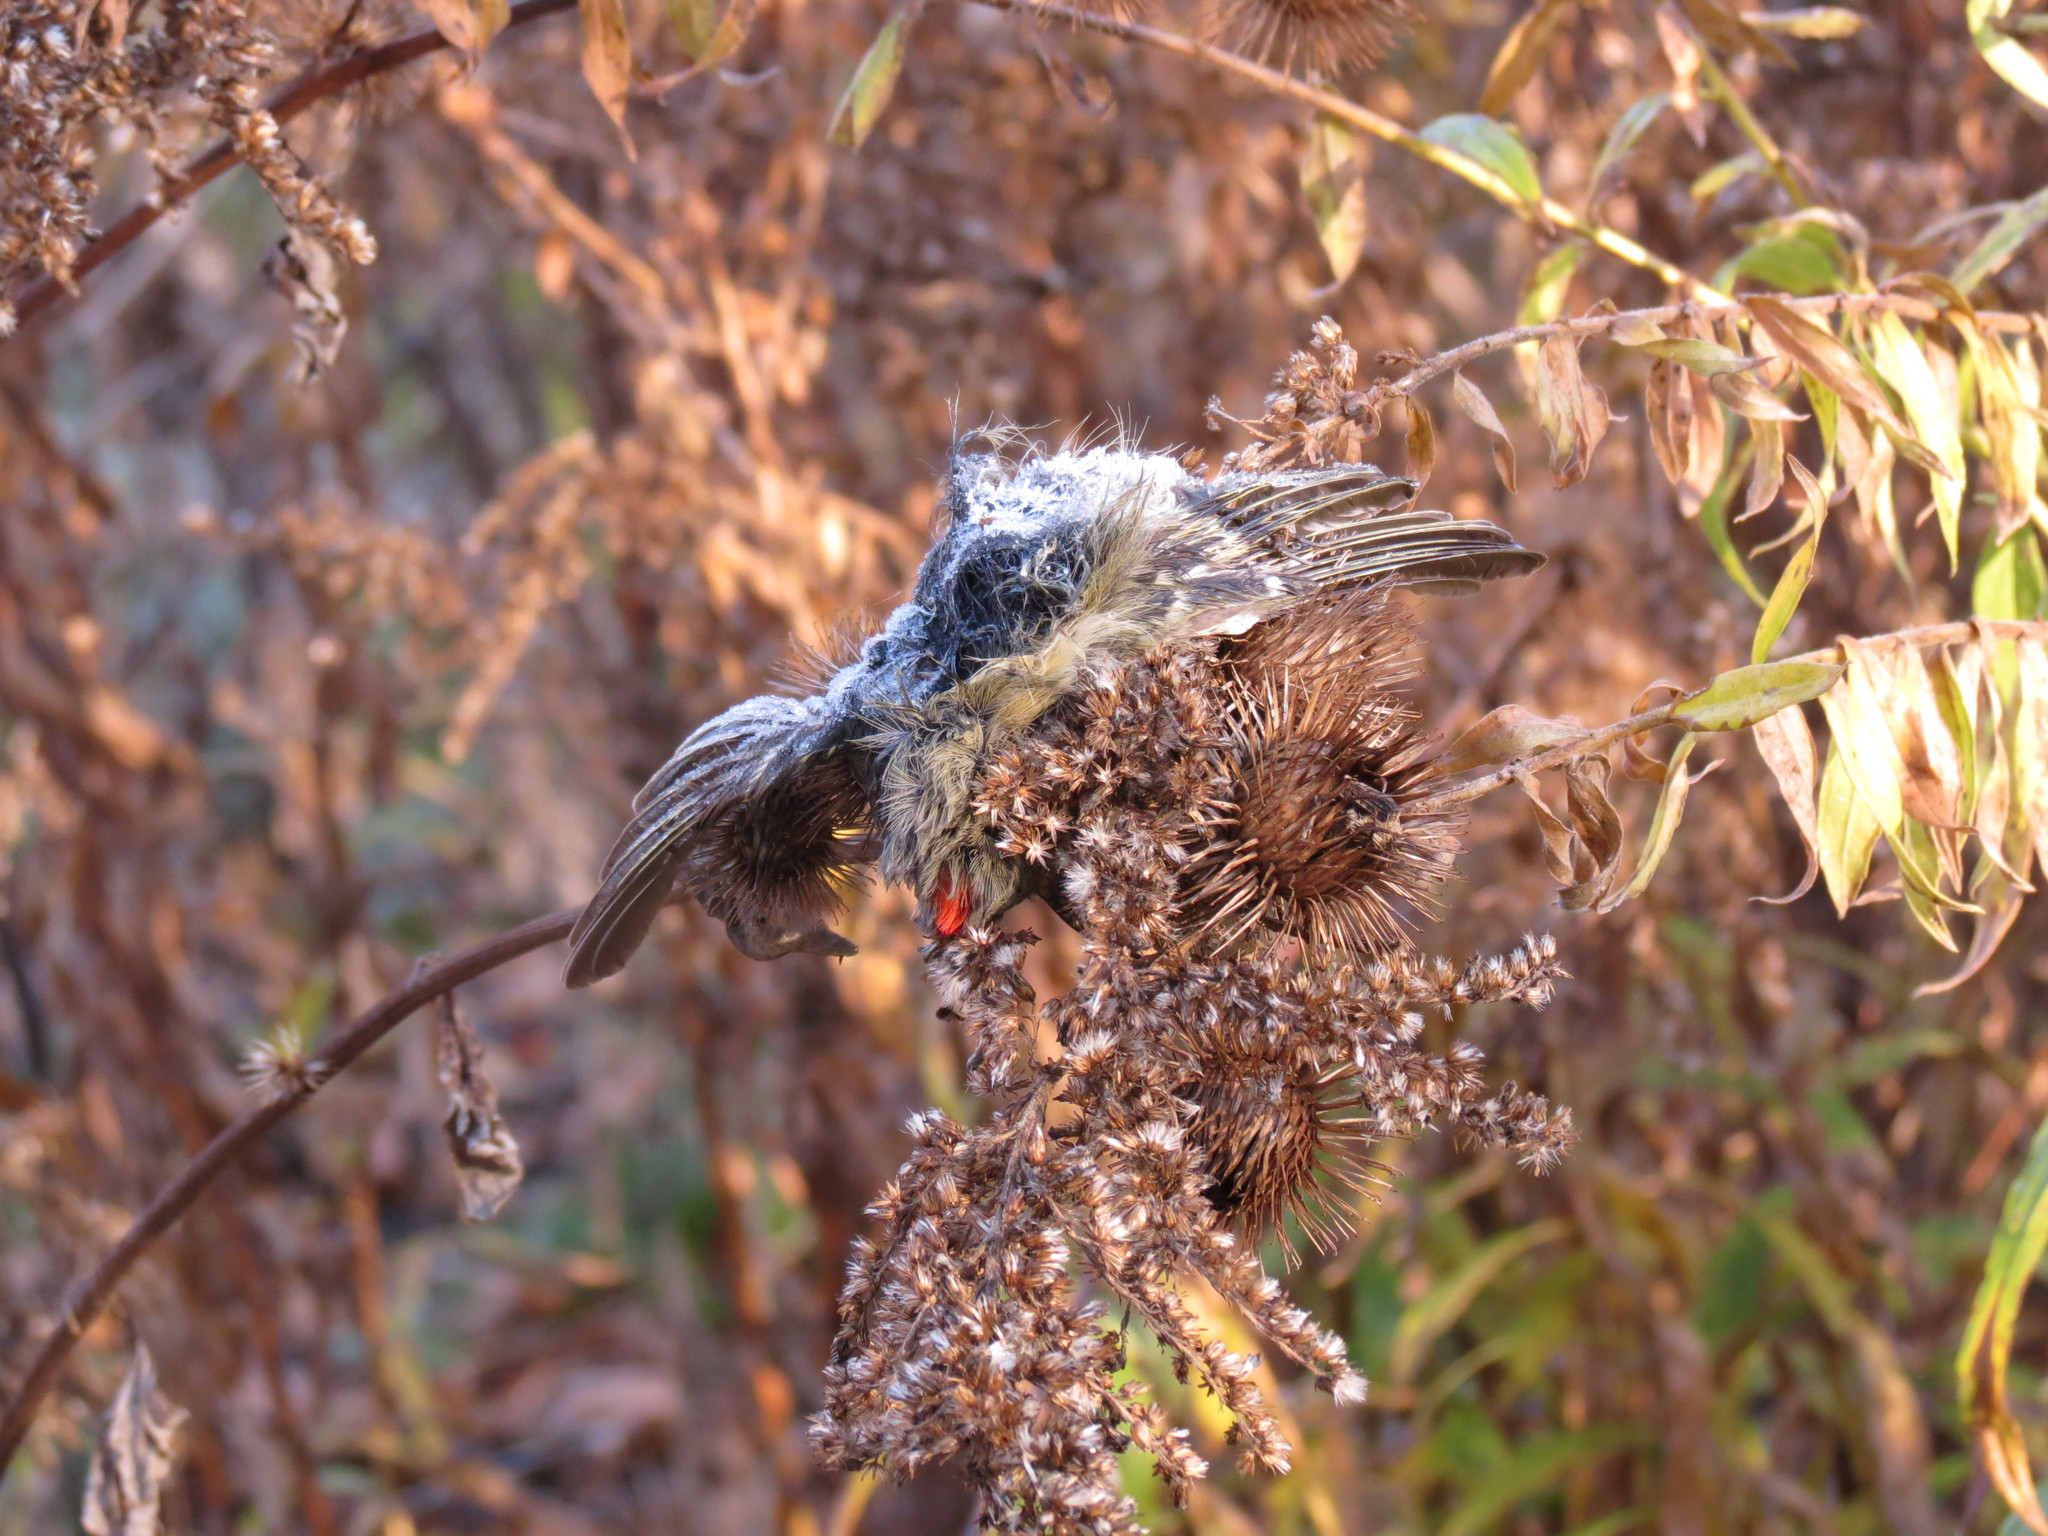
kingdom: Animalia
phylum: Chordata
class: Aves
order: Passeriformes
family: Regulidae
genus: Regulus
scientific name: Regulus calendula
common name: Ruby-crowned kinglet
